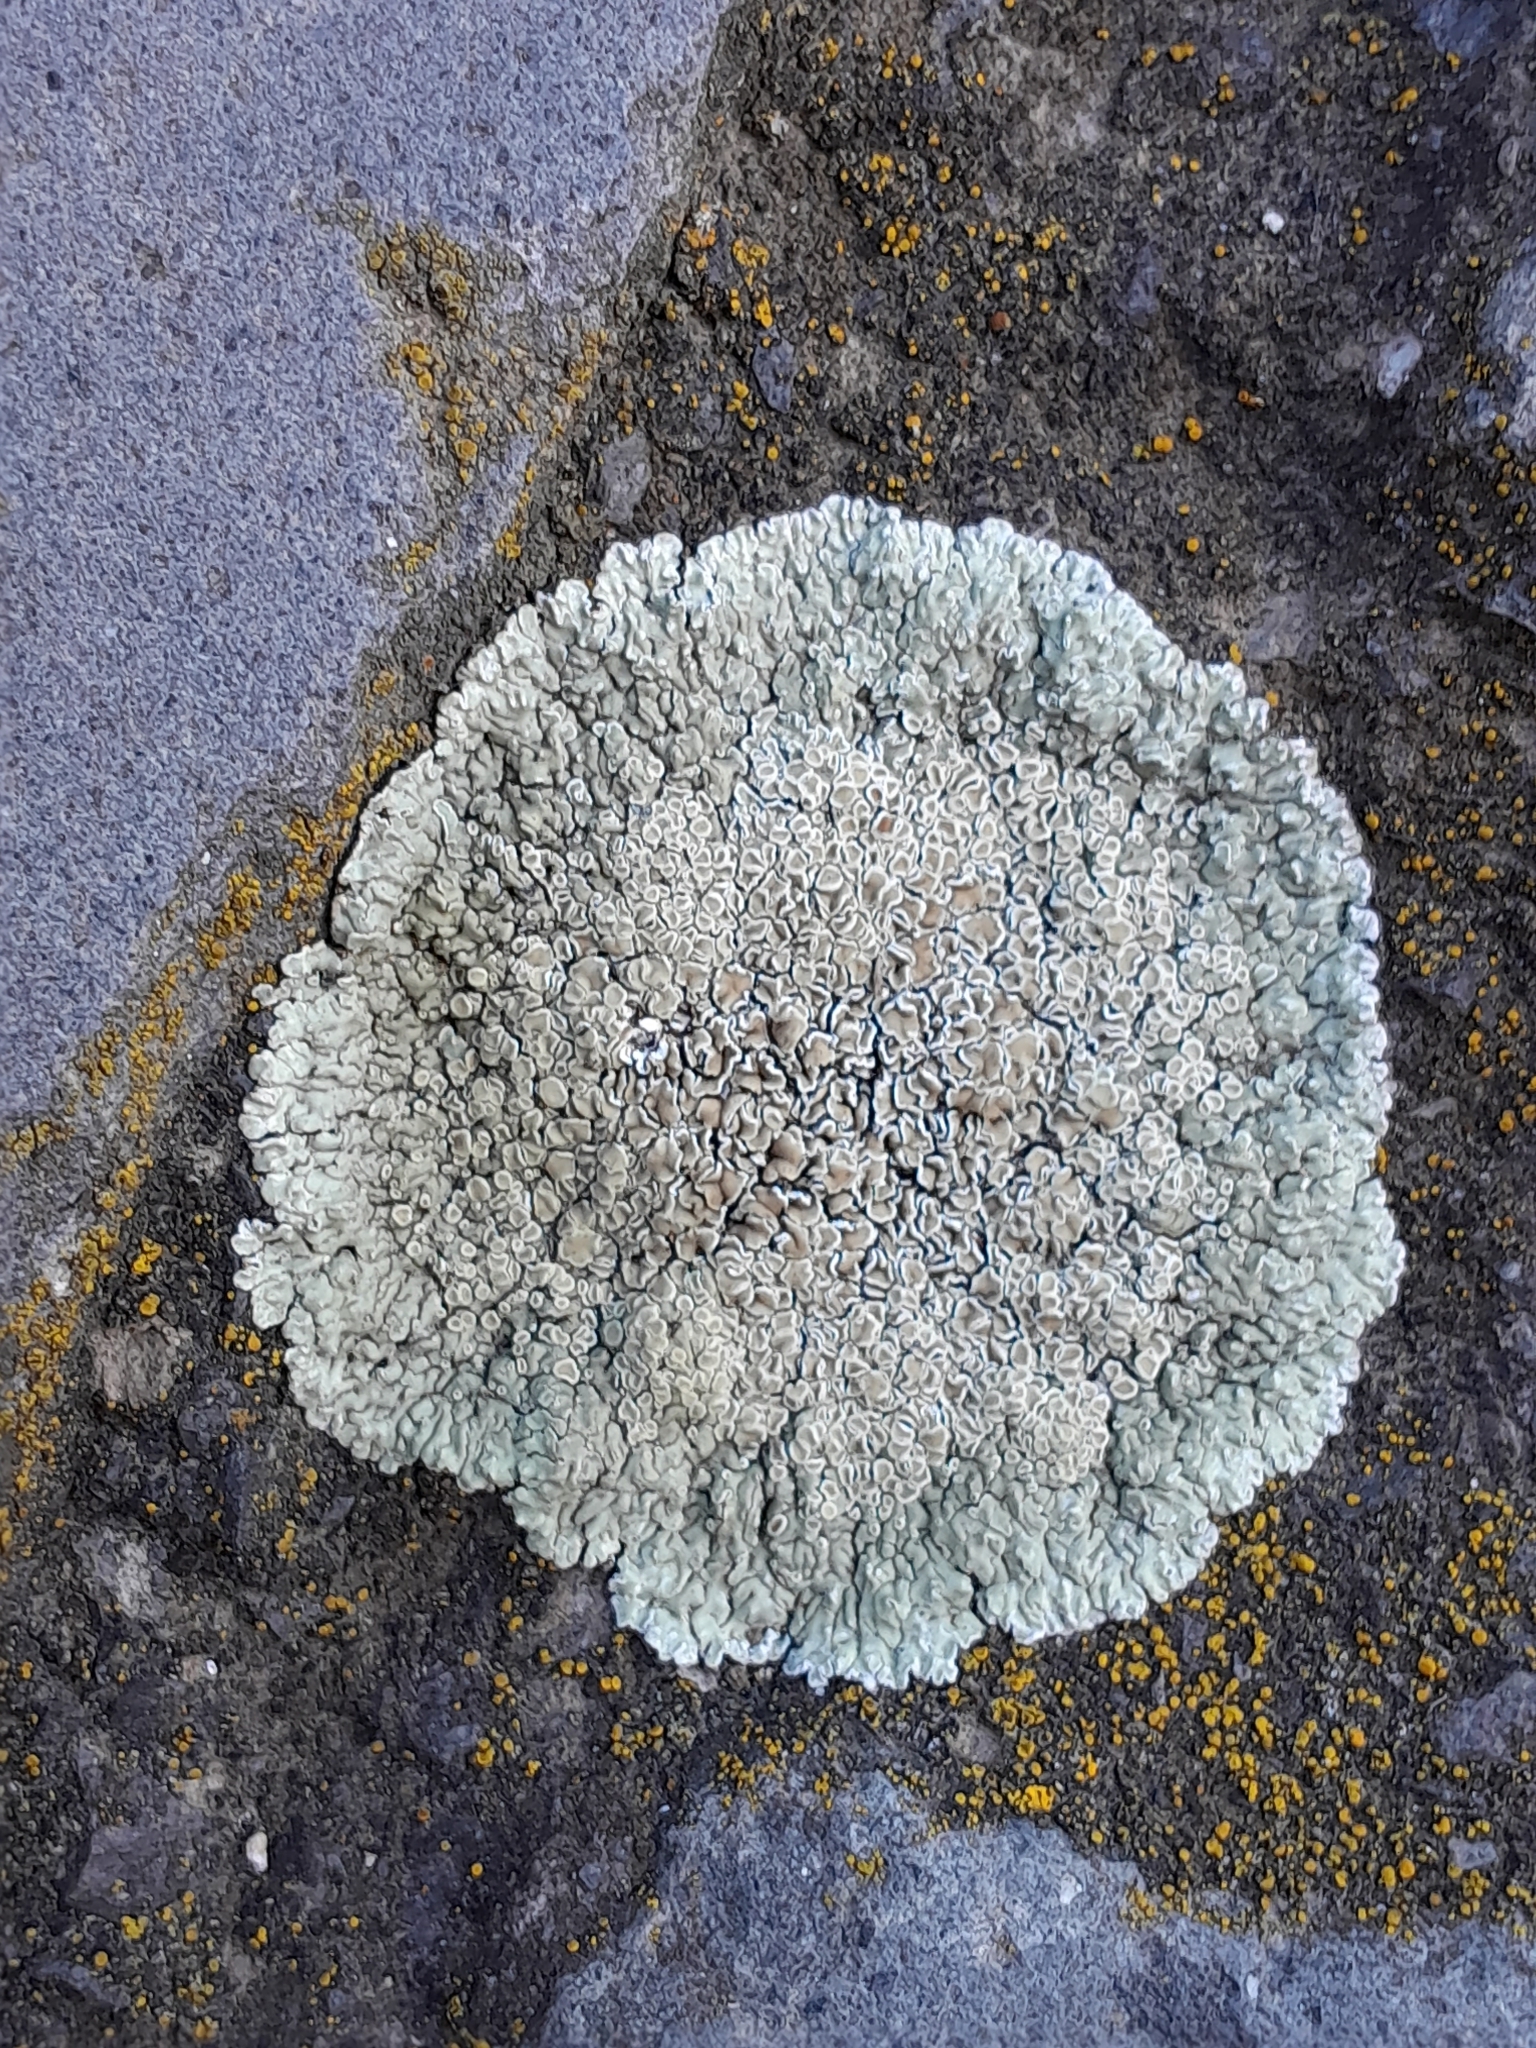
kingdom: Fungi
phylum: Ascomycota
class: Lecanoromycetes
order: Lecanorales
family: Lecanoraceae
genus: Protoparmeliopsis
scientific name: Protoparmeliopsis muralis
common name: Stonewall rim lichen
